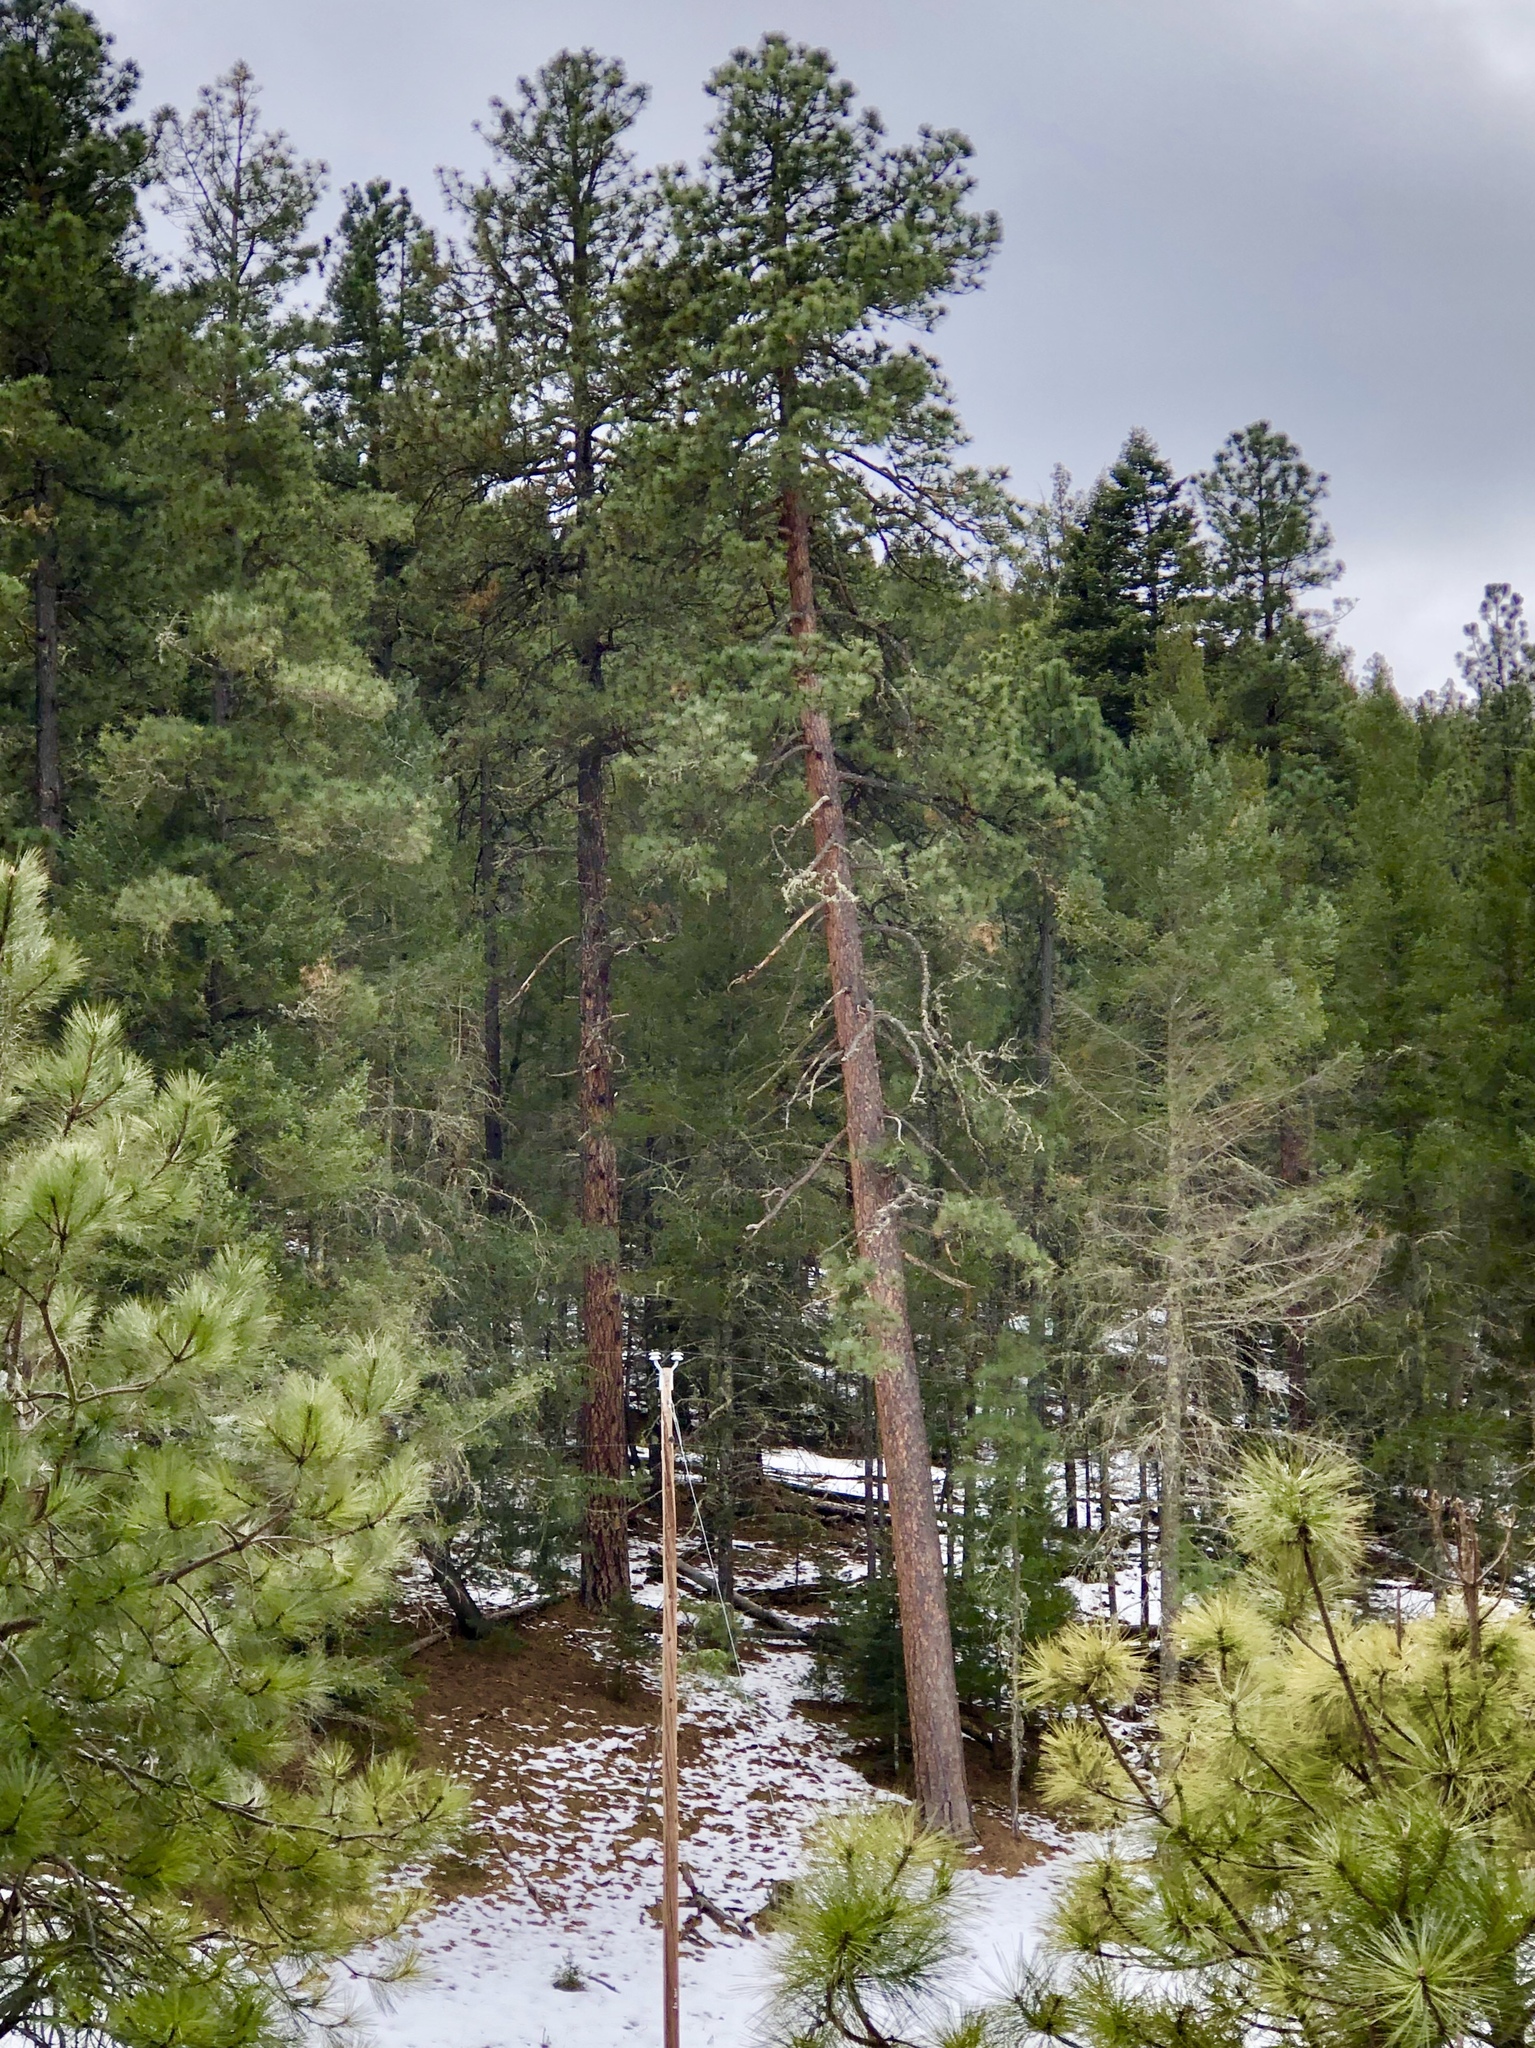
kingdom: Plantae
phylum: Tracheophyta
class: Pinopsida
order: Pinales
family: Pinaceae
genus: Pinus
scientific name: Pinus ponderosa
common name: Western yellow-pine
